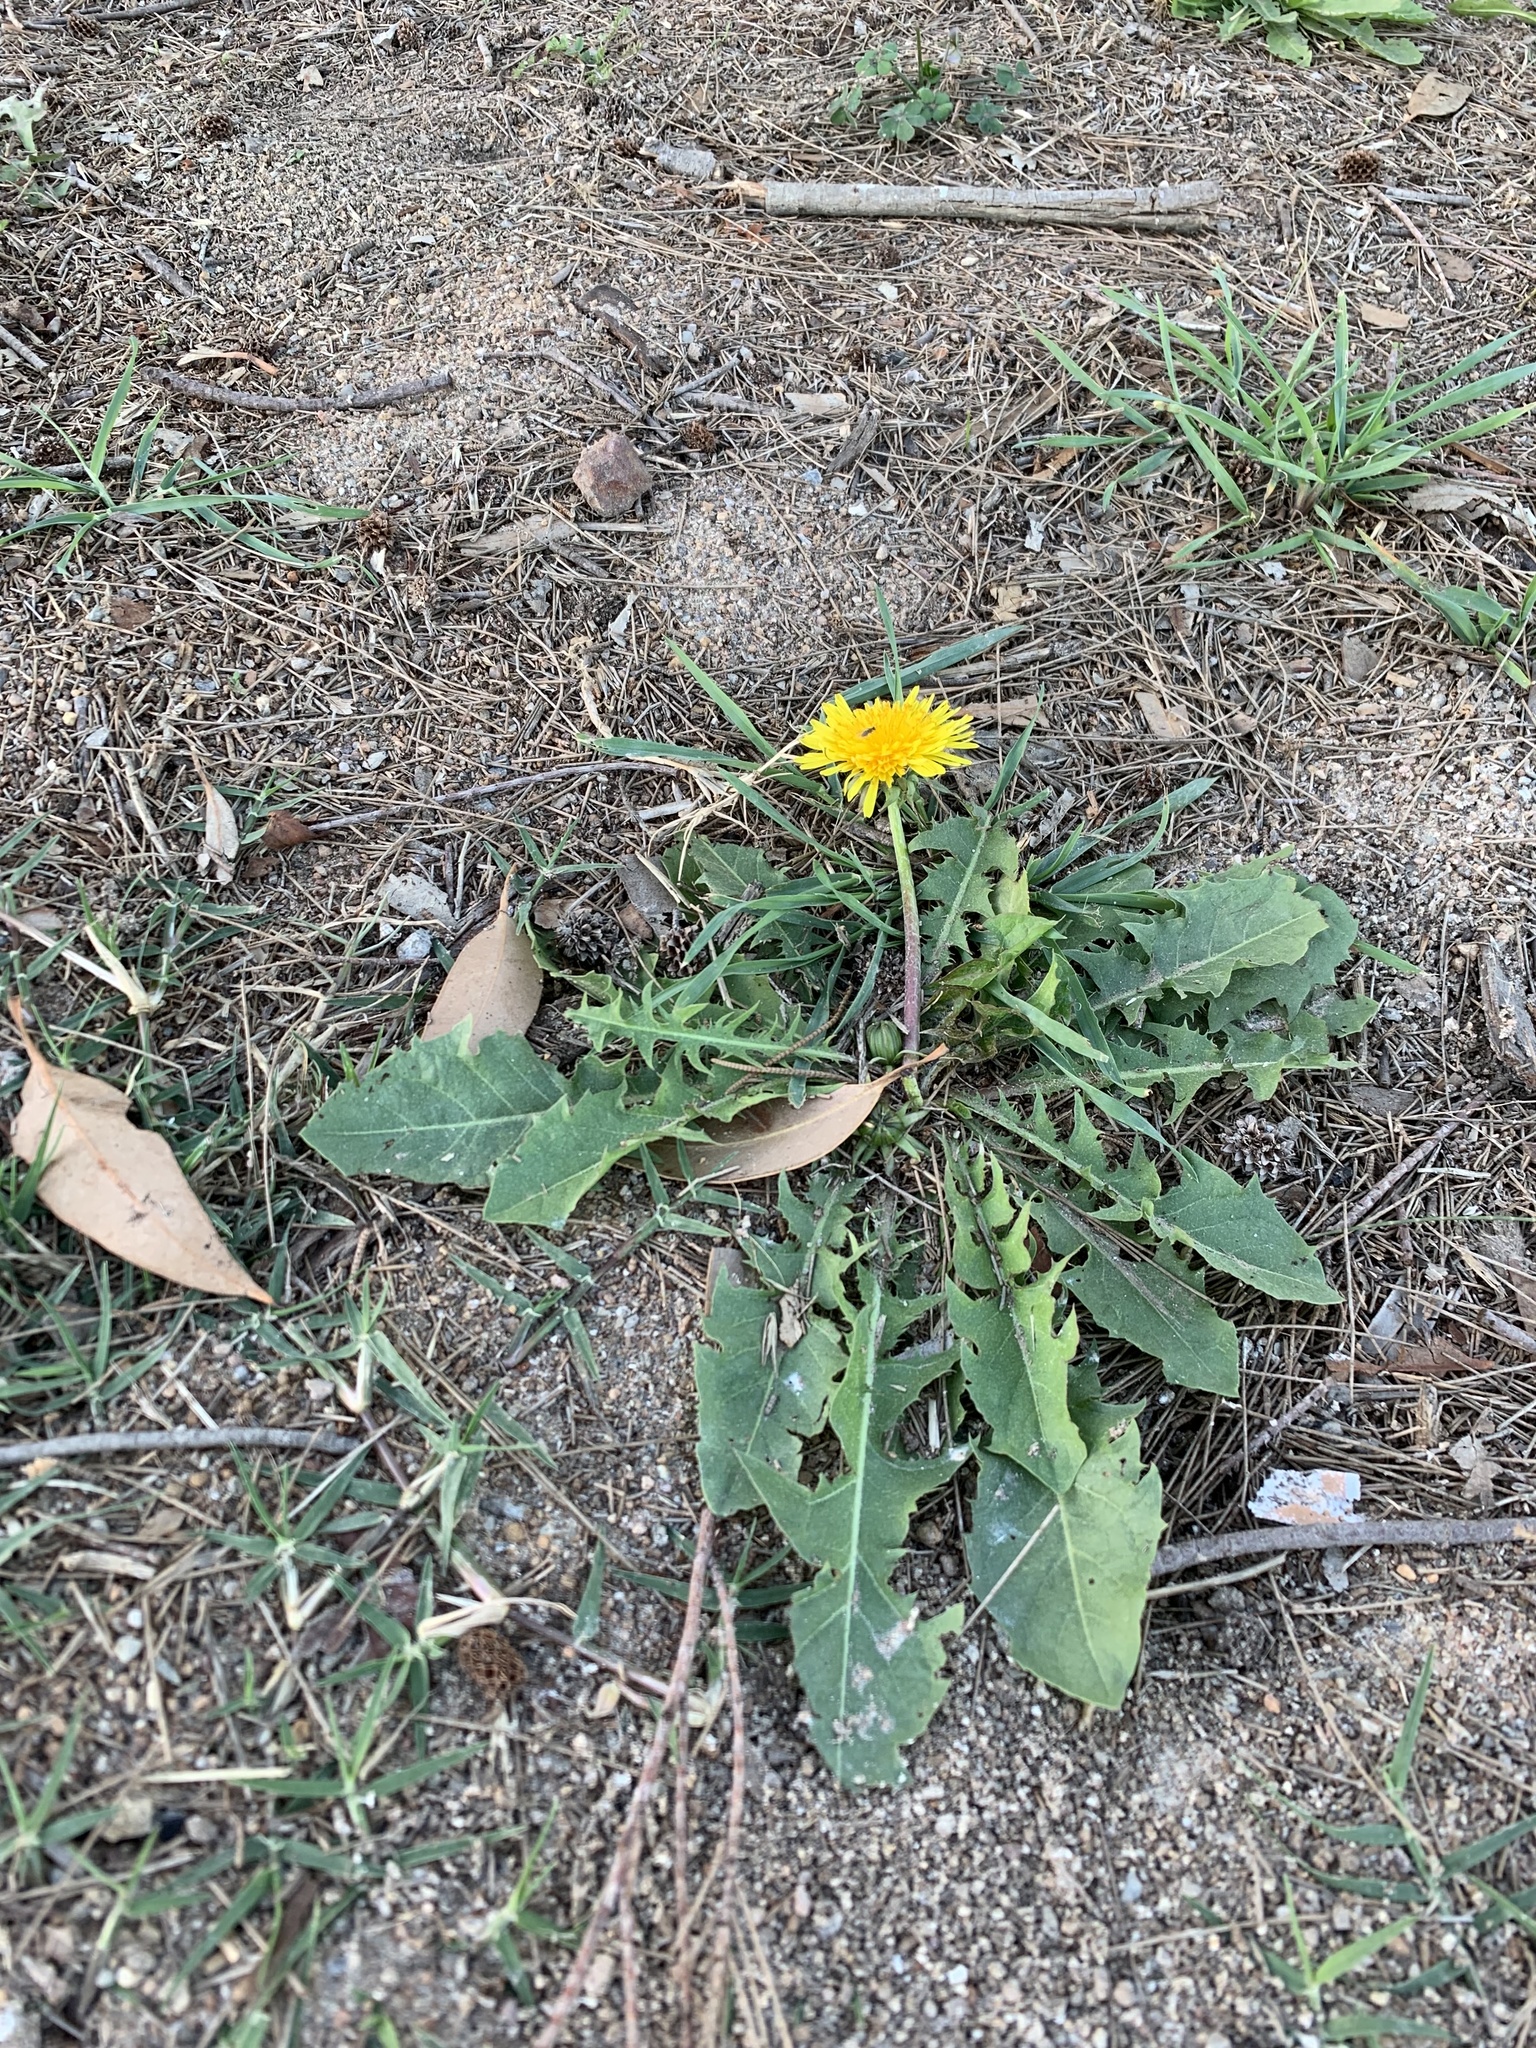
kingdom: Plantae
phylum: Tracheophyta
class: Magnoliopsida
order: Asterales
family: Asteraceae
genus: Taraxacum
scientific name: Taraxacum officinale
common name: Common dandelion
